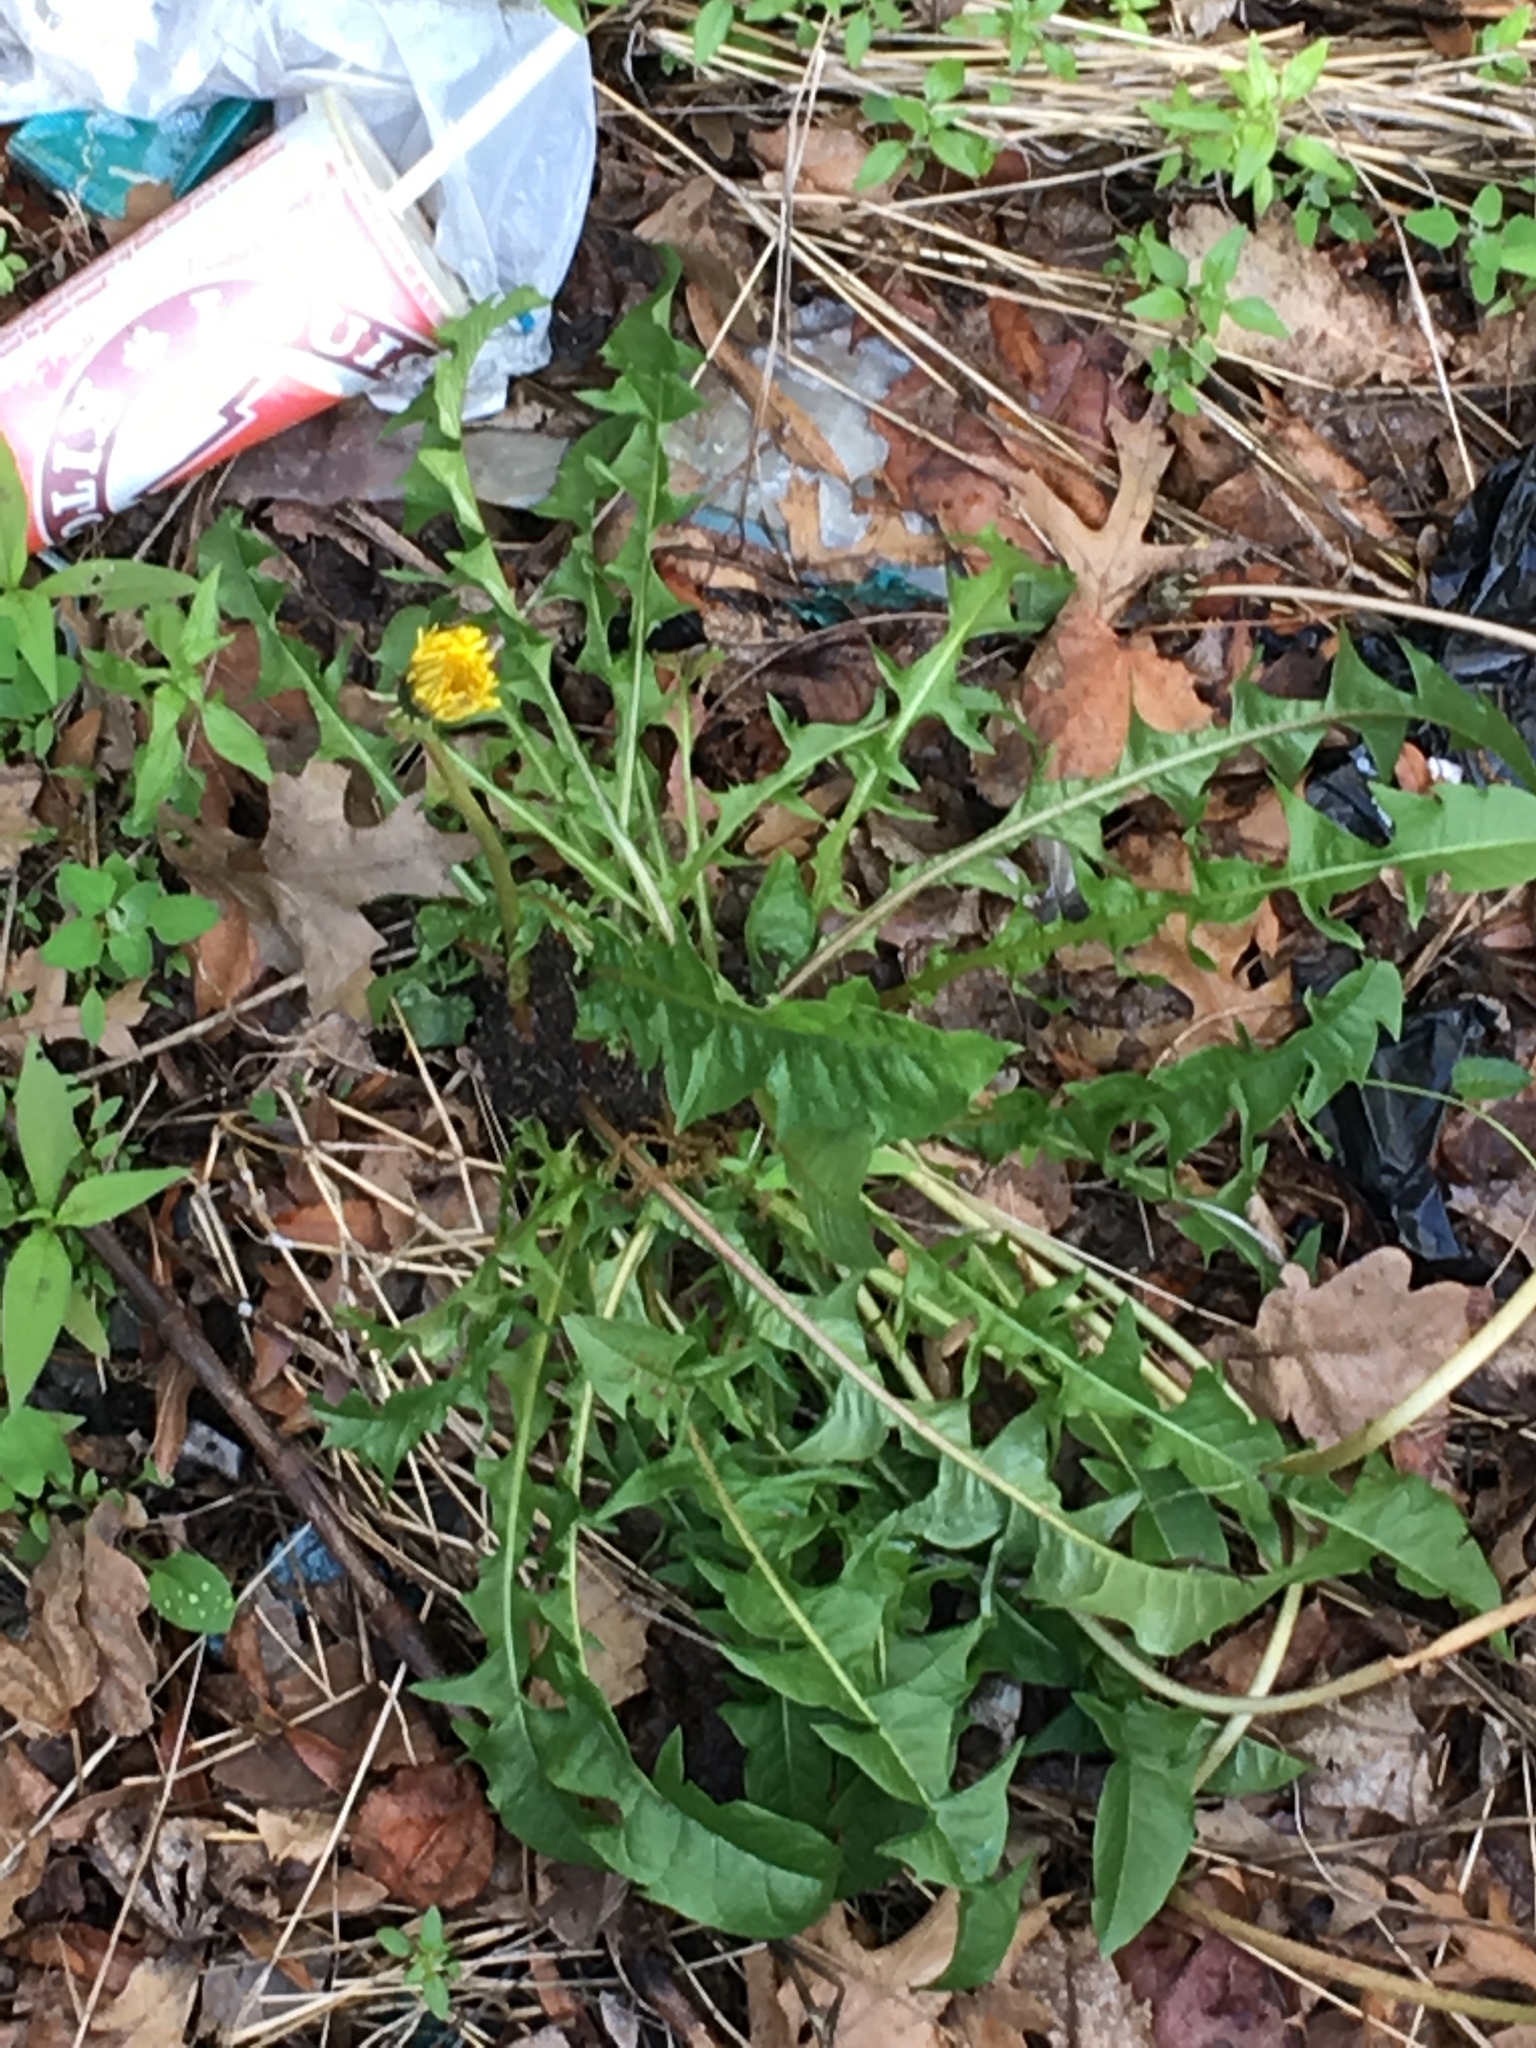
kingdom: Plantae
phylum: Tracheophyta
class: Magnoliopsida
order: Asterales
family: Asteraceae
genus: Taraxacum
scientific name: Taraxacum officinale
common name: Common dandelion
